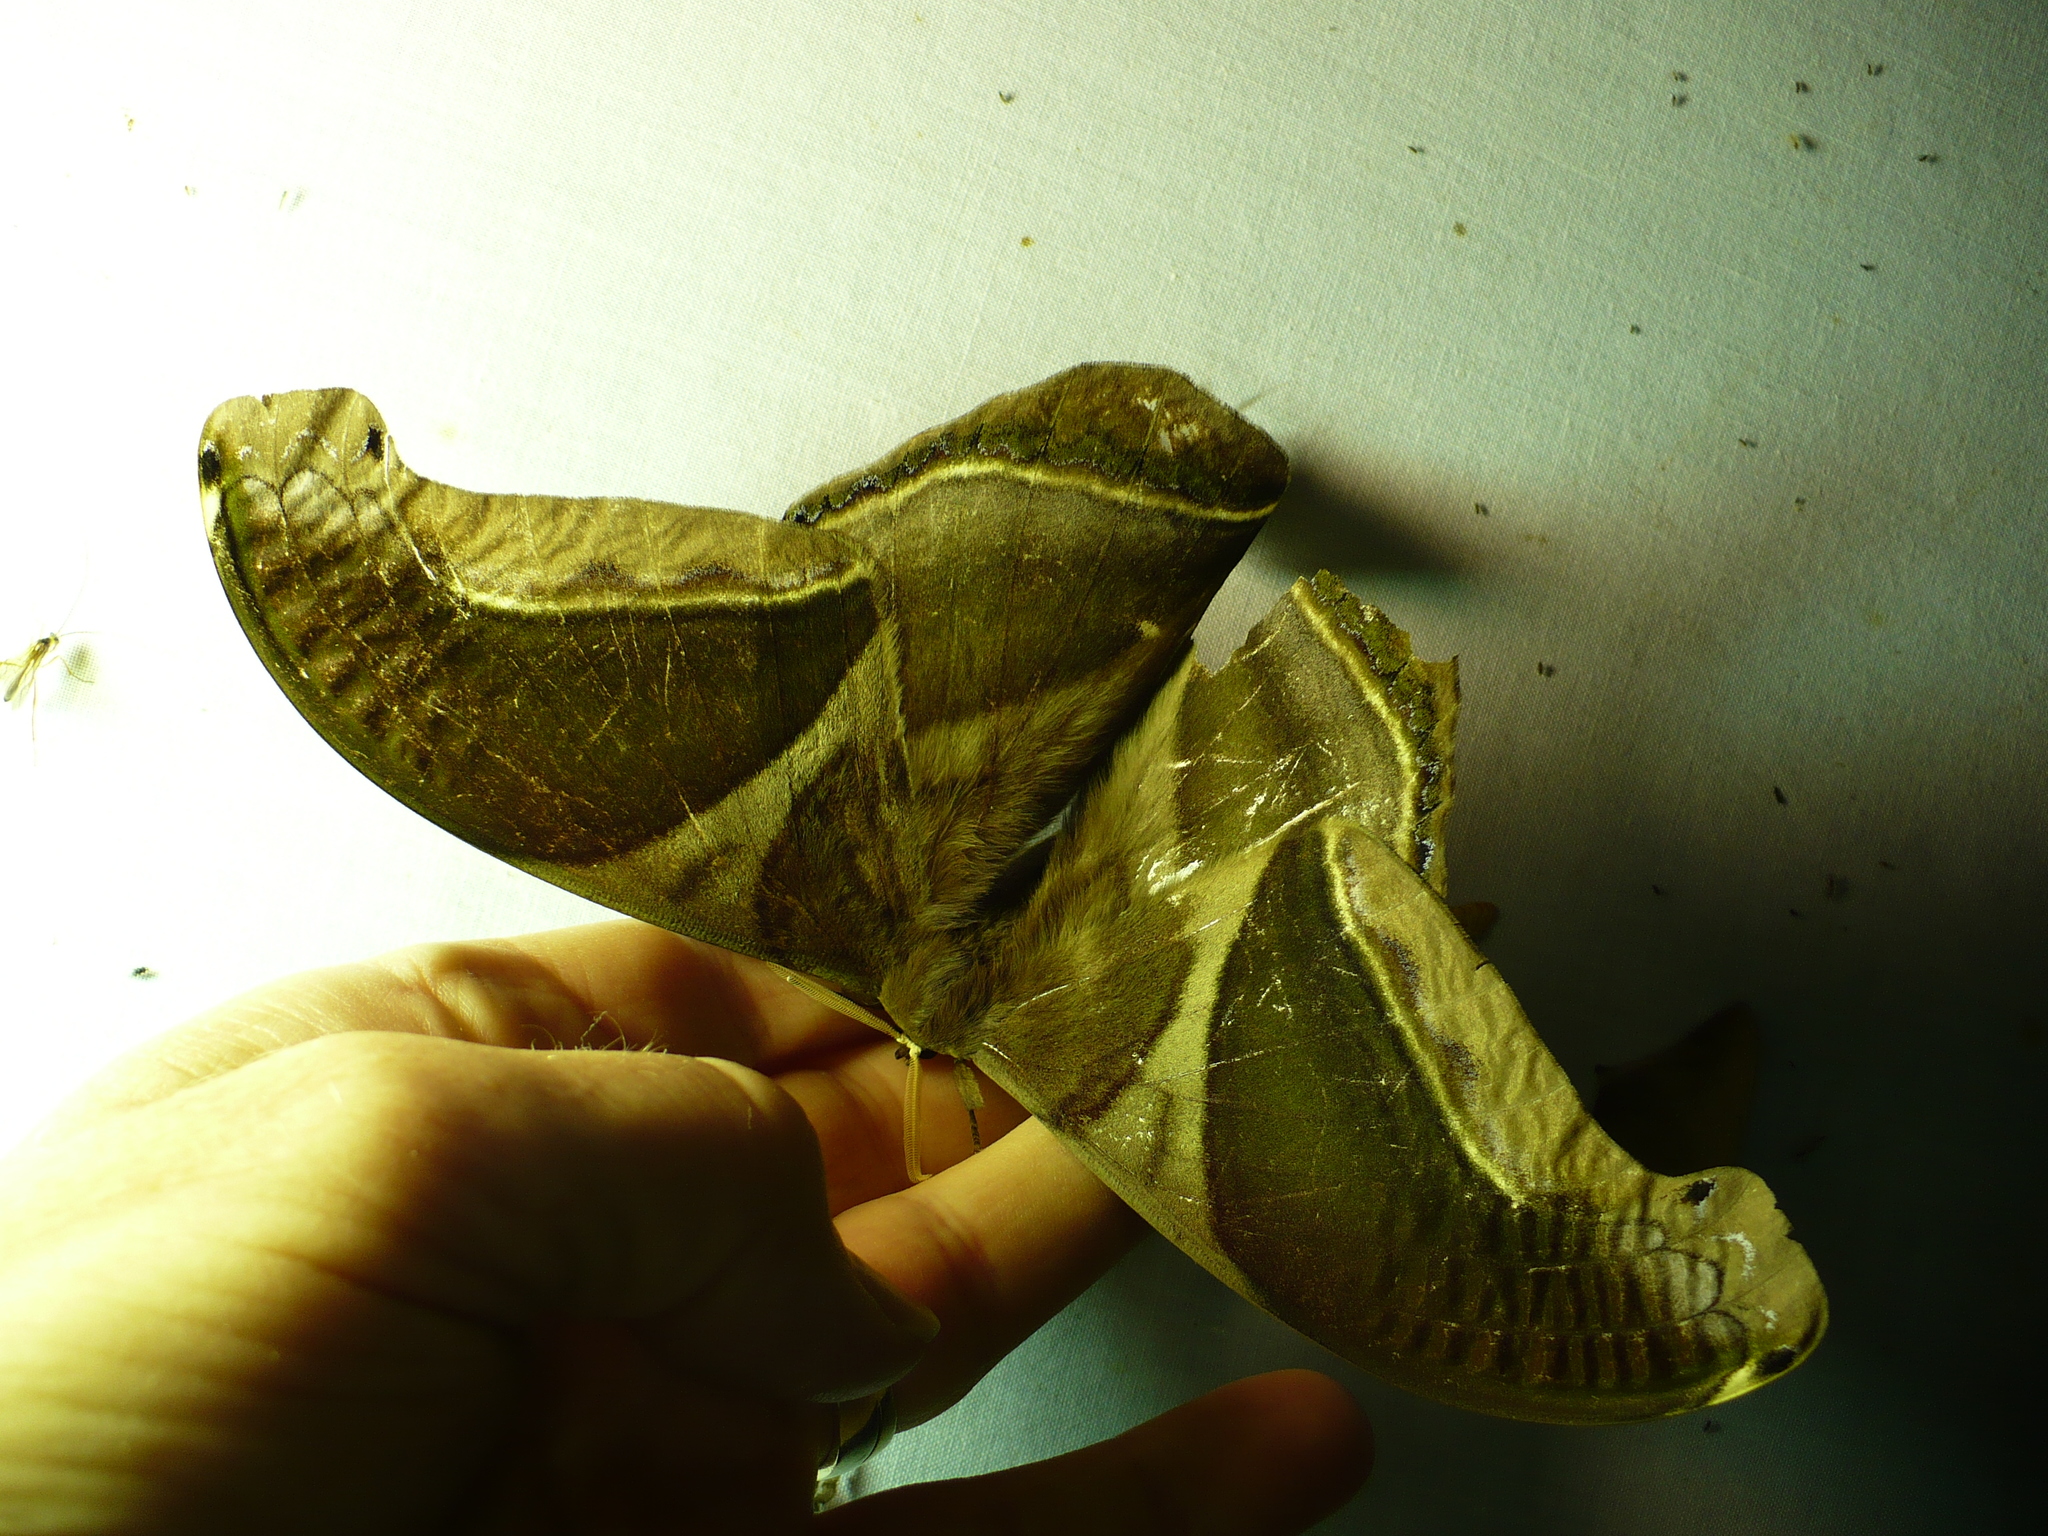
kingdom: Animalia
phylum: Arthropoda
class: Insecta
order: Lepidoptera
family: Saturniidae
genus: Rhescyntis
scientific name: Rhescyntis hippodamia
